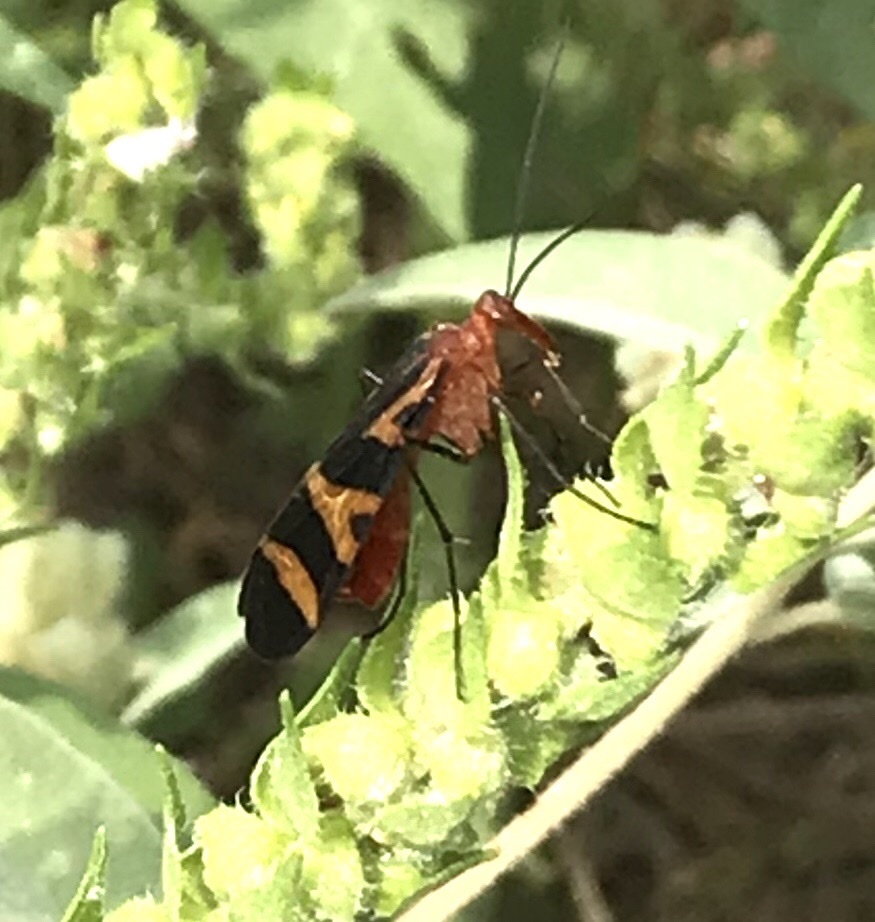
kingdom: Animalia
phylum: Arthropoda
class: Insecta
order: Mecoptera
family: Panorpidae
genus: Panorpa
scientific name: Panorpa nuptialis
